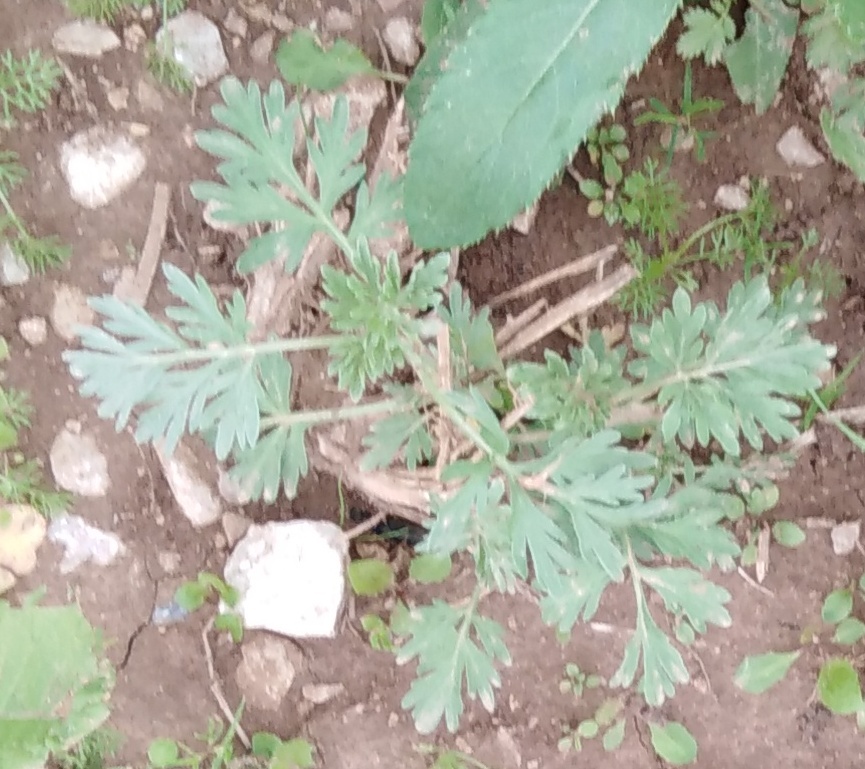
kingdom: Plantae
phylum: Tracheophyta
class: Magnoliopsida
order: Asterales
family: Asteraceae
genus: Artemisia
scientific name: Artemisia absinthium
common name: Wormwood
